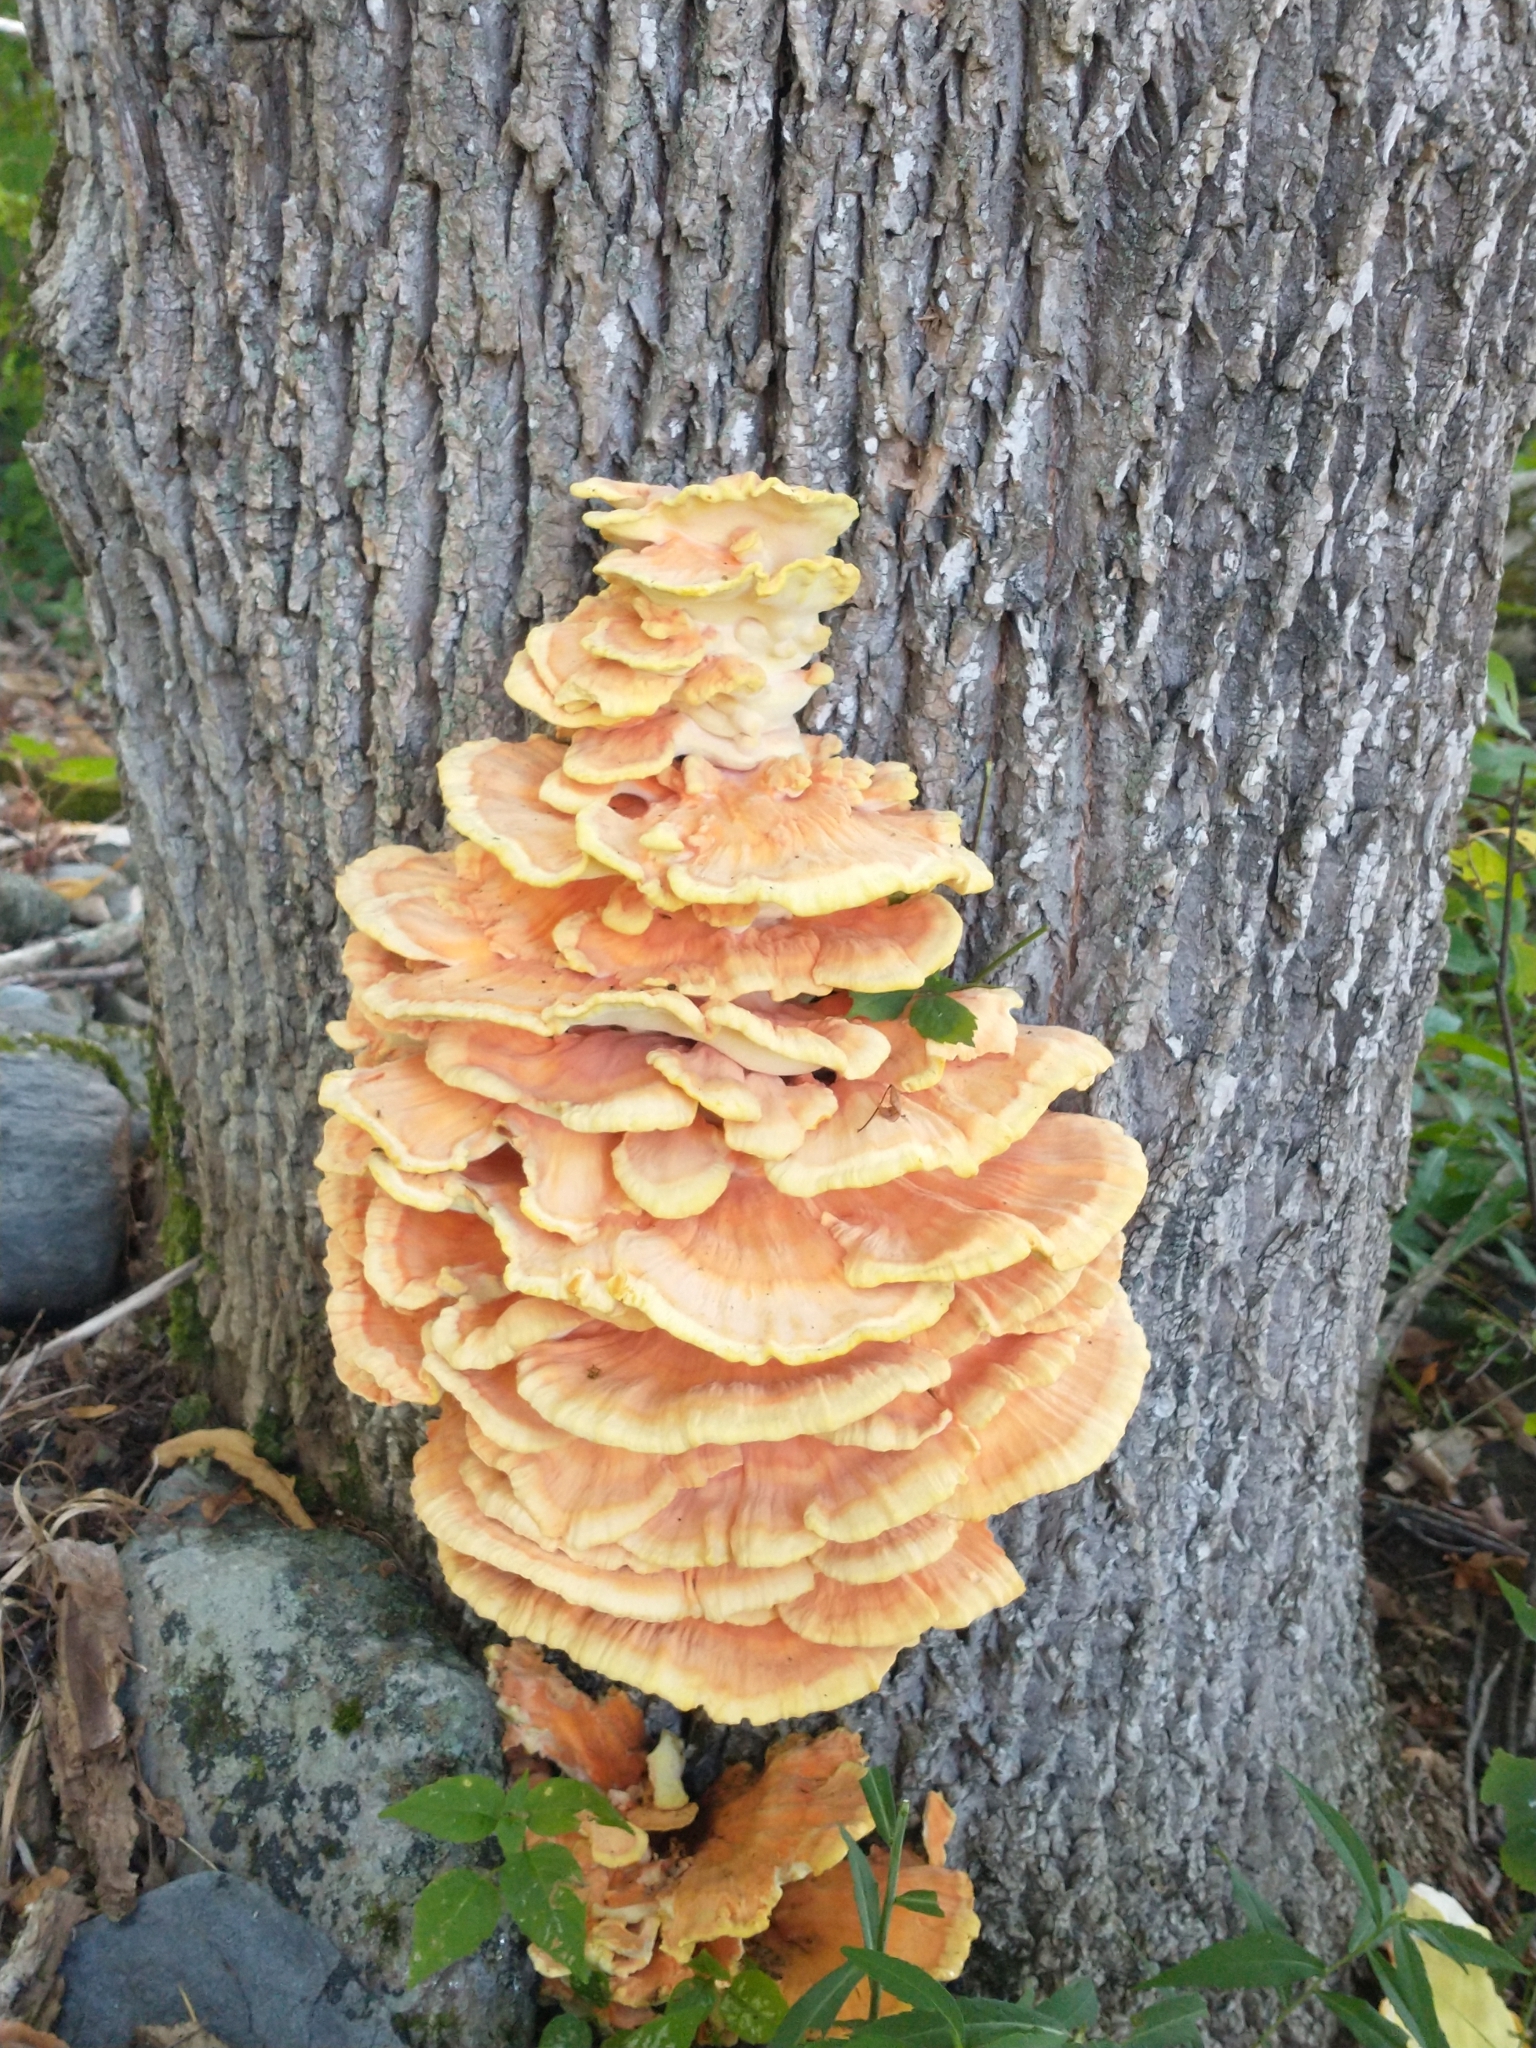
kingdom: Fungi
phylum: Basidiomycota
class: Agaricomycetes
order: Polyporales
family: Laetiporaceae
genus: Laetiporus
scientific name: Laetiporus sulphureus
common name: Chicken of the woods
